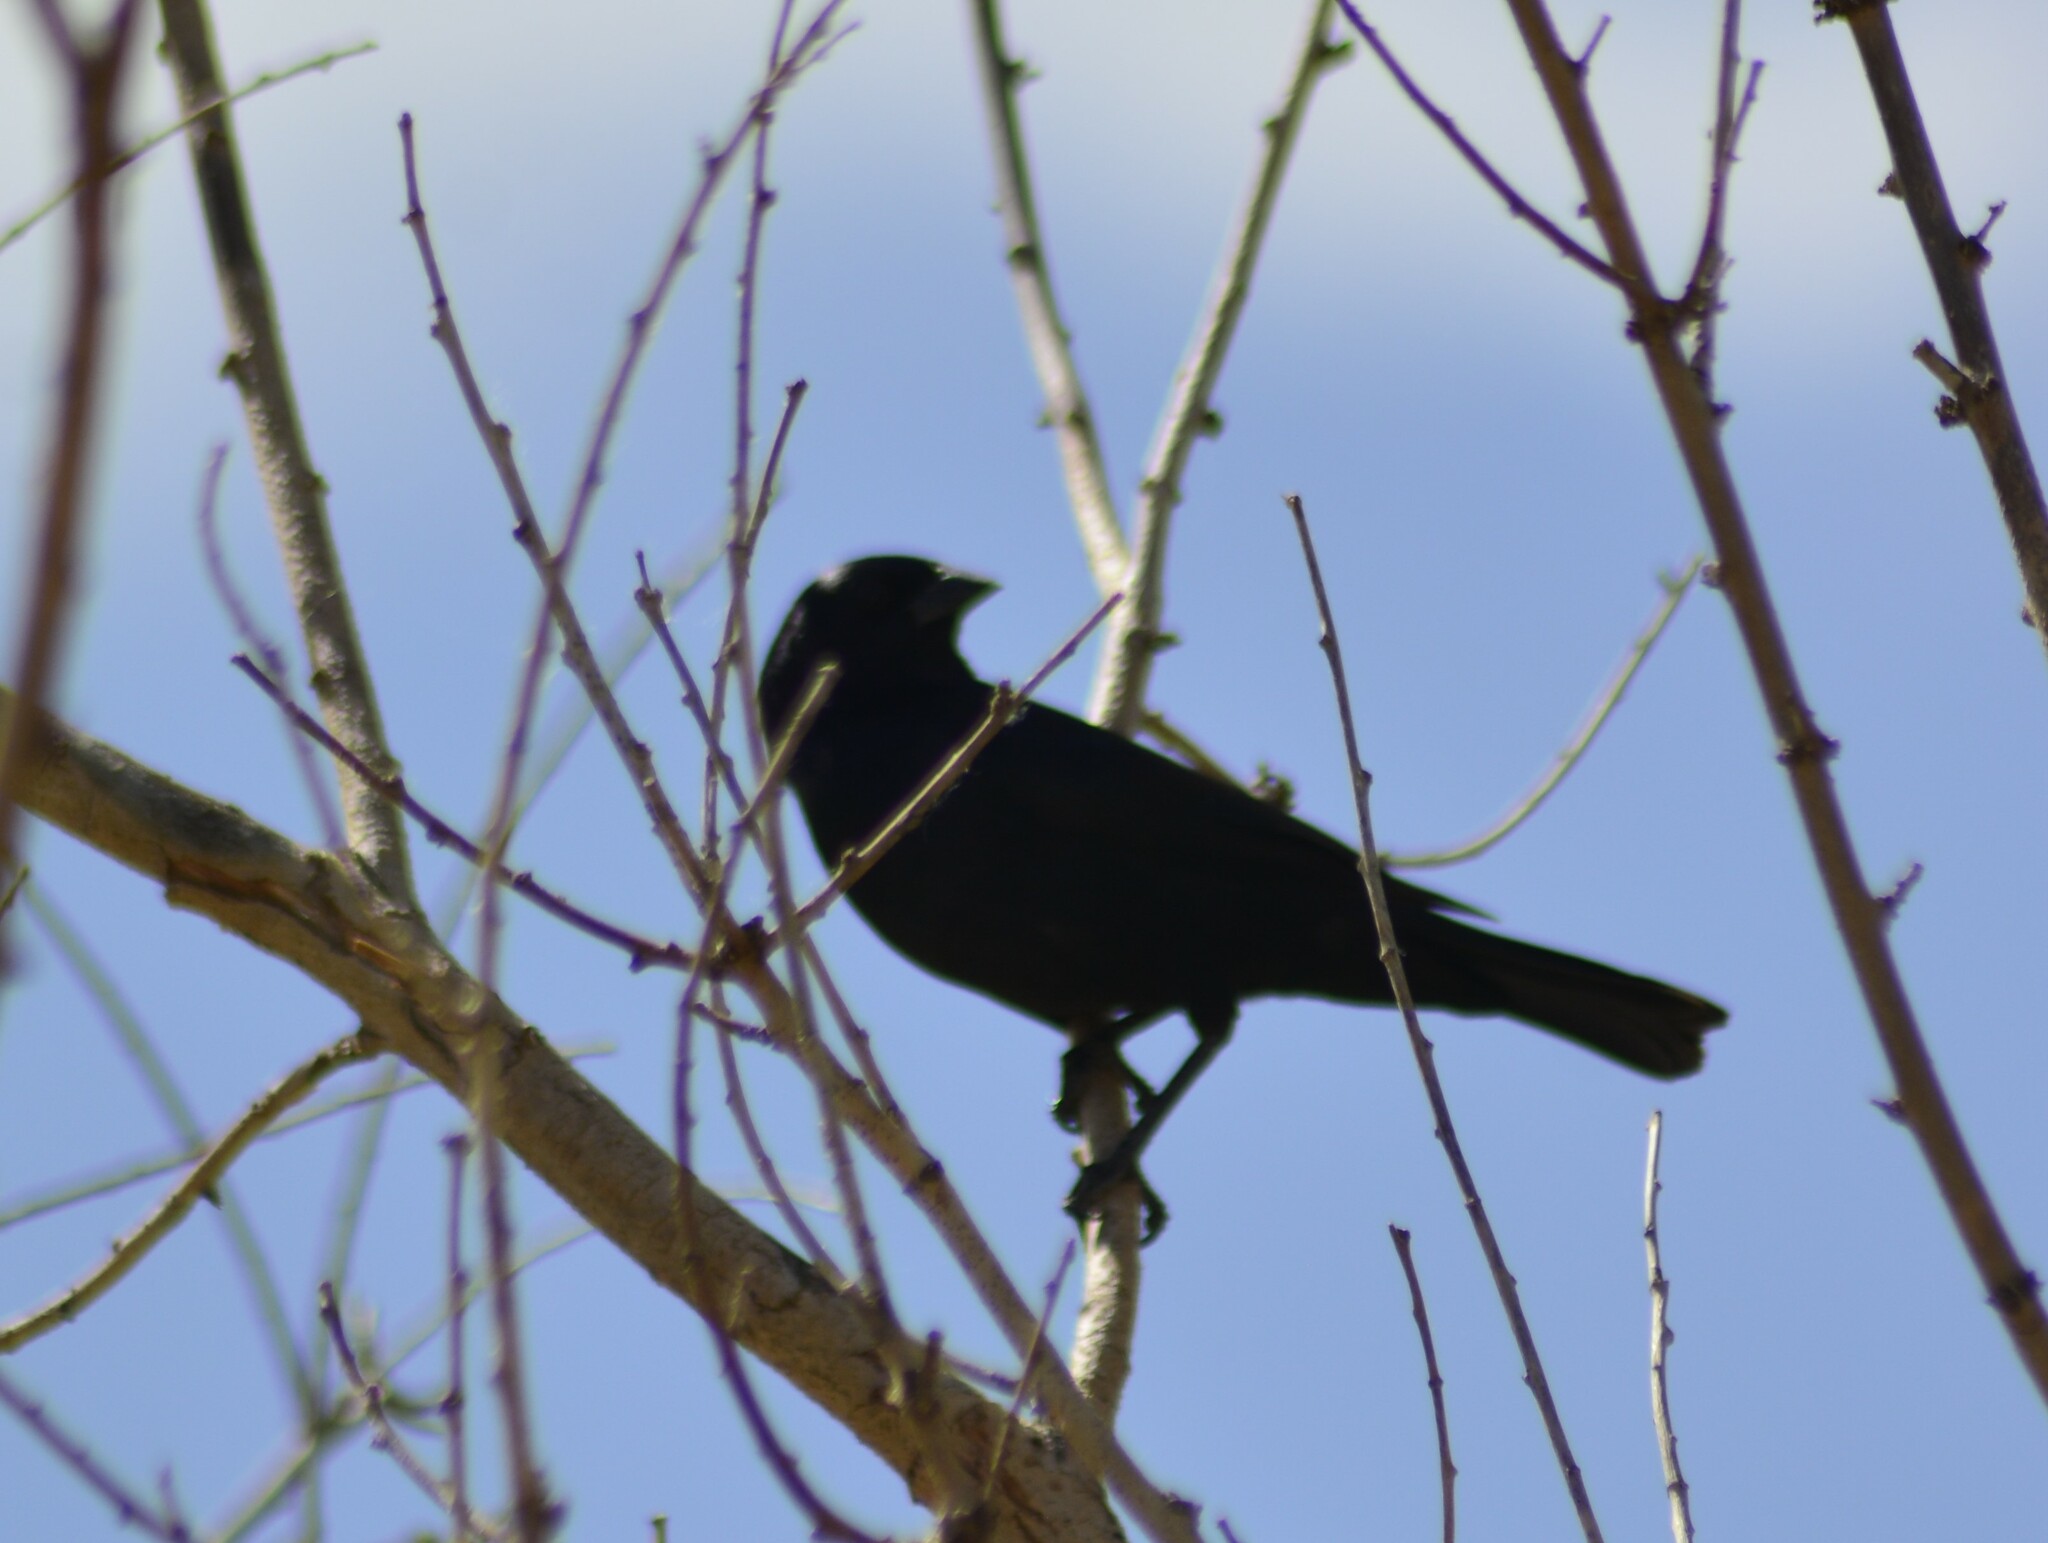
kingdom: Animalia
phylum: Chordata
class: Aves
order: Passeriformes
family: Icteridae
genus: Molothrus
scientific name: Molothrus bonariensis
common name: Shiny cowbird
